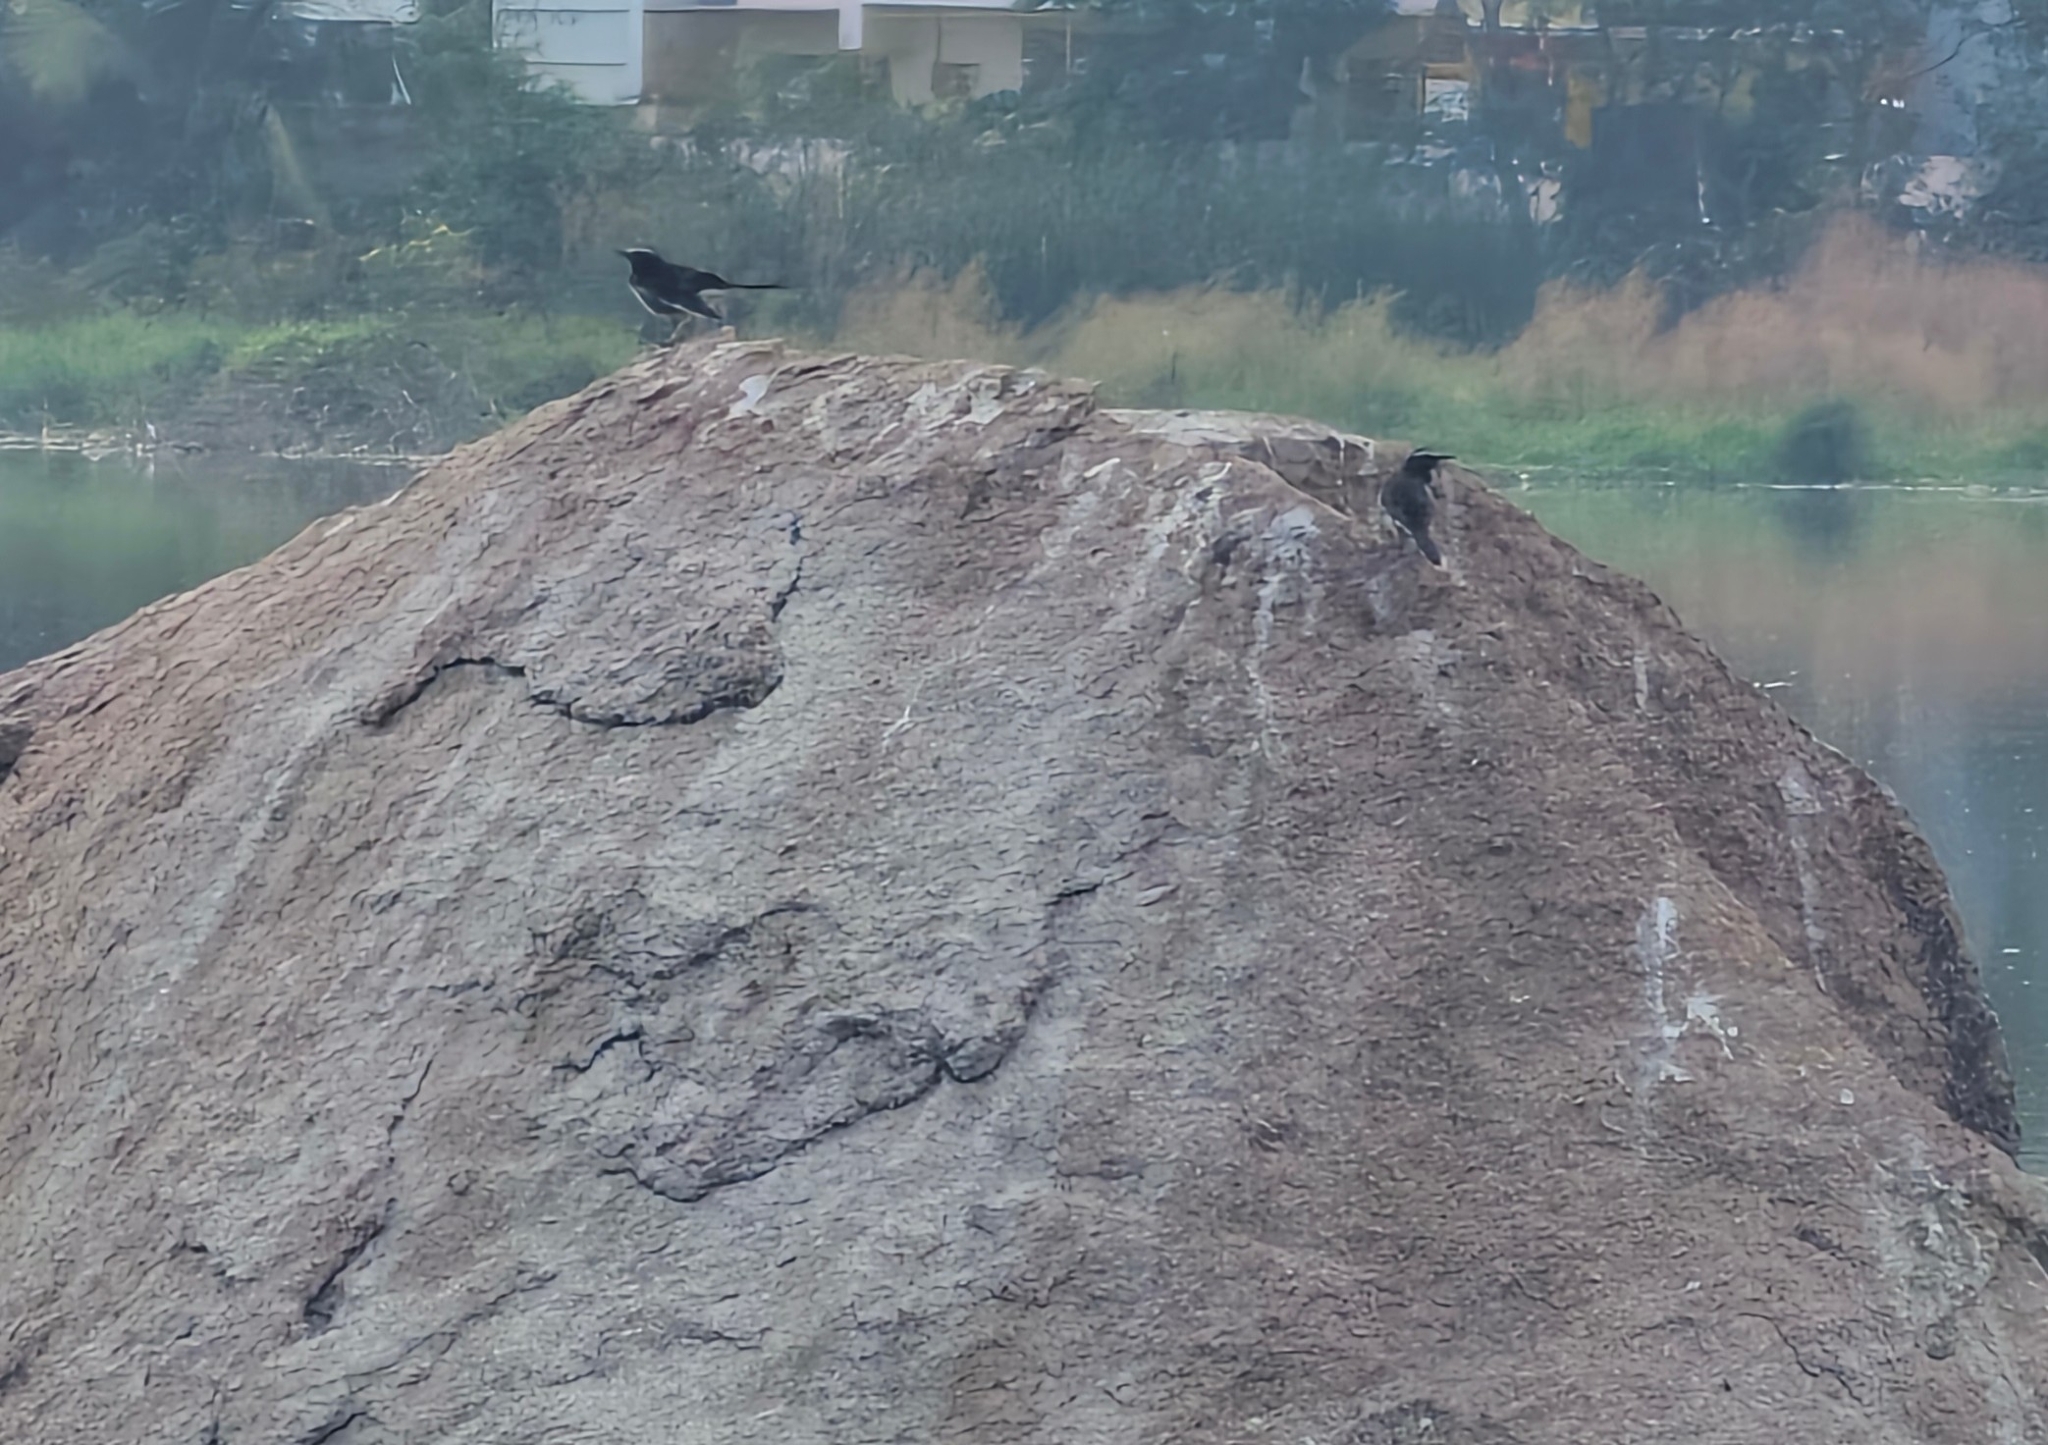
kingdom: Animalia
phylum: Chordata
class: Aves
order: Passeriformes
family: Motacillidae
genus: Motacilla
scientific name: Motacilla maderaspatensis
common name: White-browed wagtail
